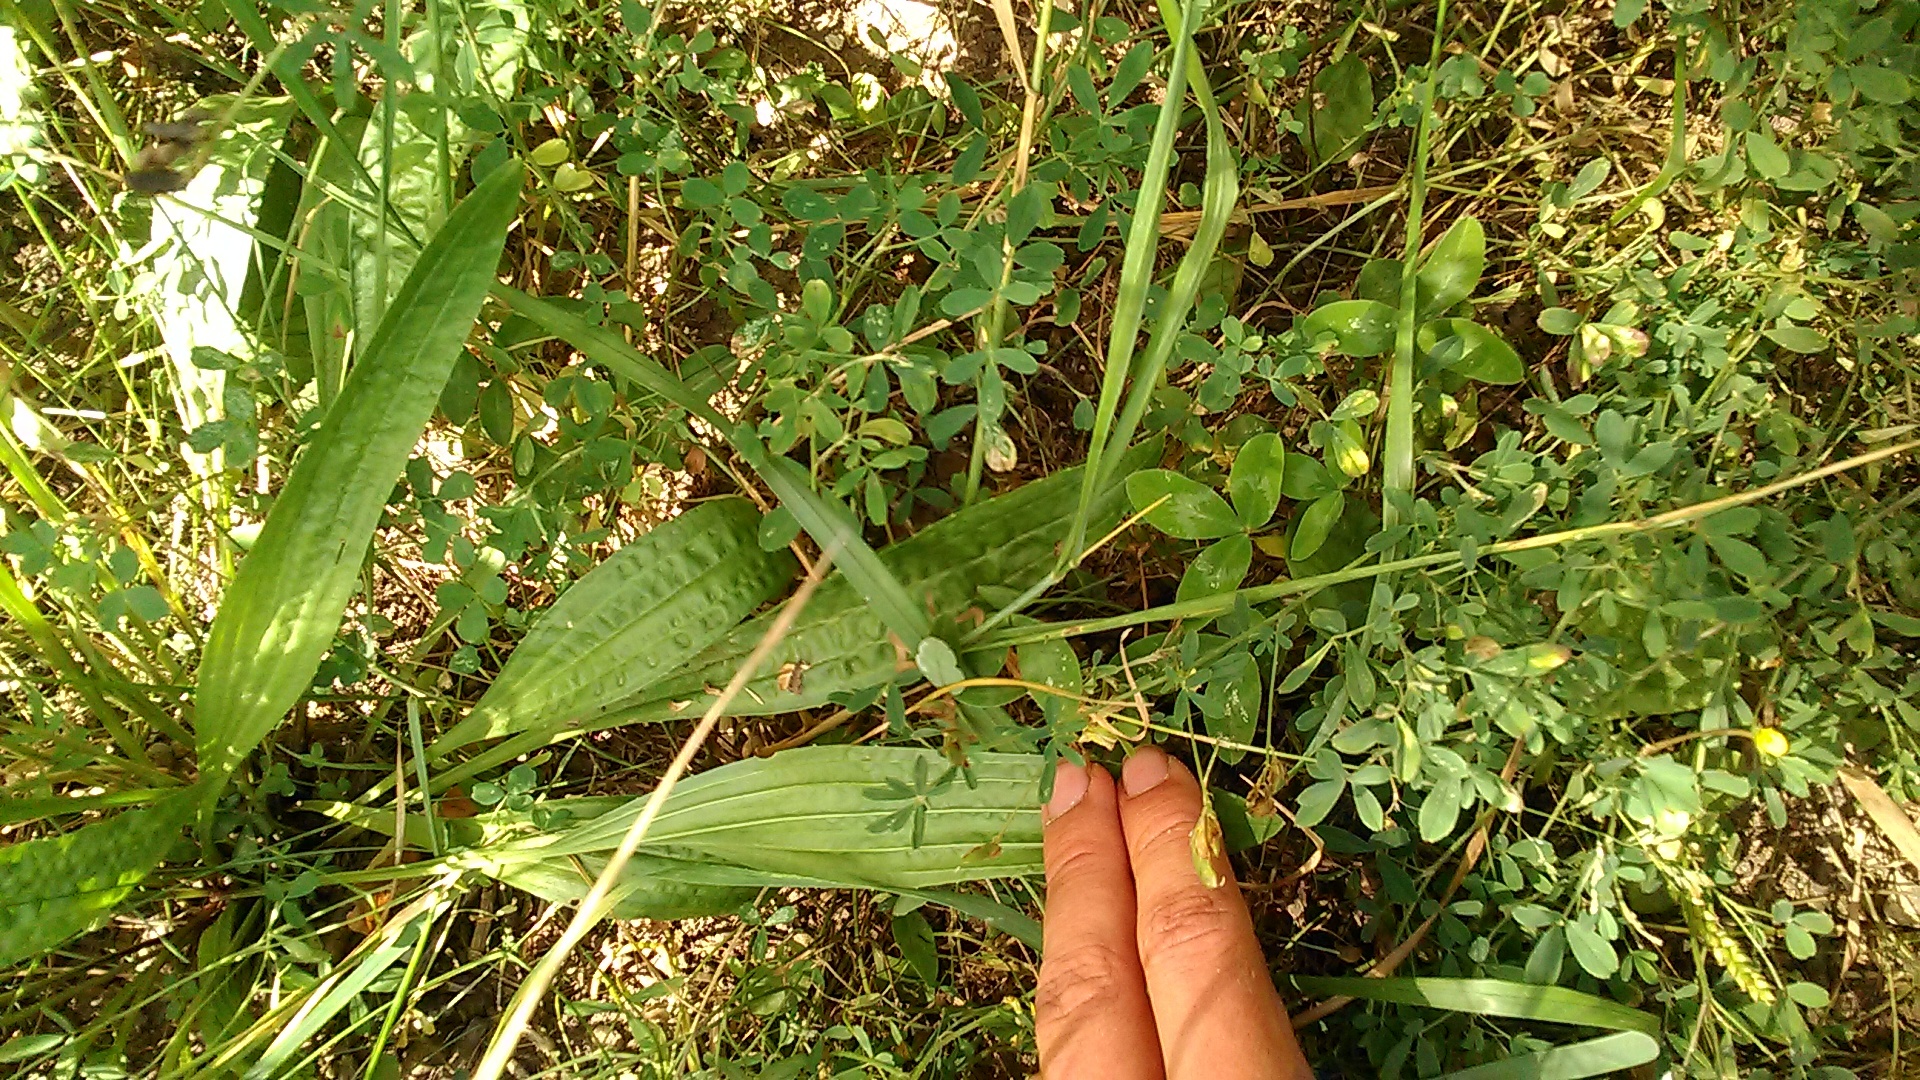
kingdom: Plantae
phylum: Tracheophyta
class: Magnoliopsida
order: Lamiales
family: Plantaginaceae
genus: Plantago
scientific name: Plantago lanceolata
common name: Ribwort plantain
